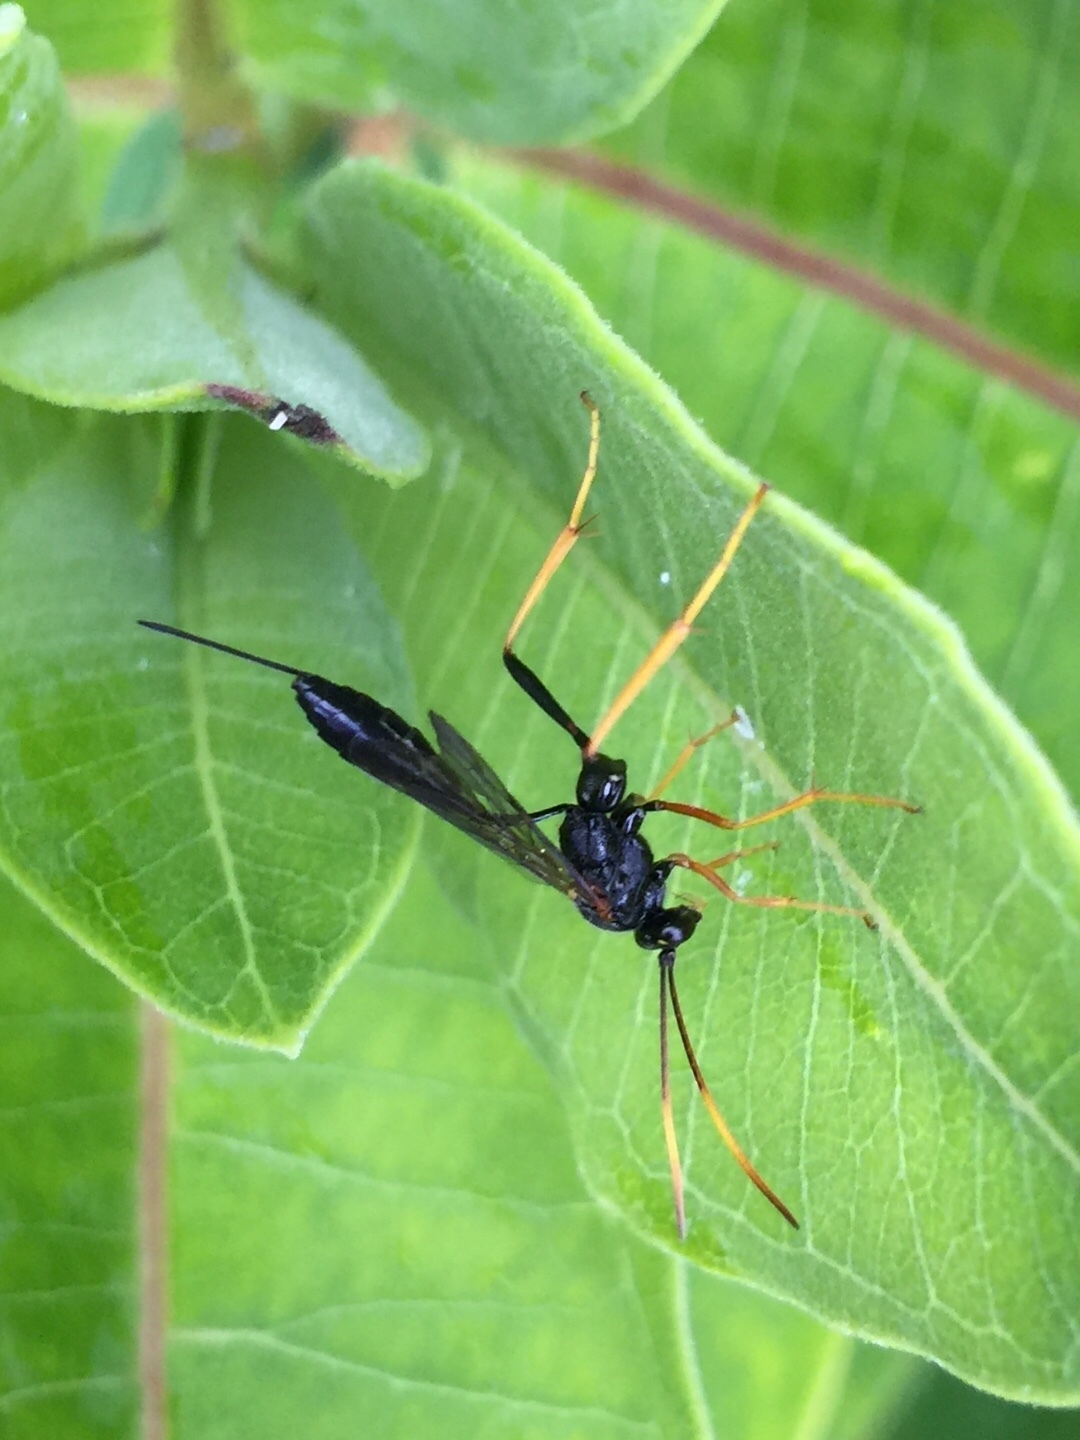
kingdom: Animalia
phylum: Arthropoda
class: Insecta
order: Hymenoptera
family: Ichneumonidae
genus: Acroricnus
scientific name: Acroricnus stylator
